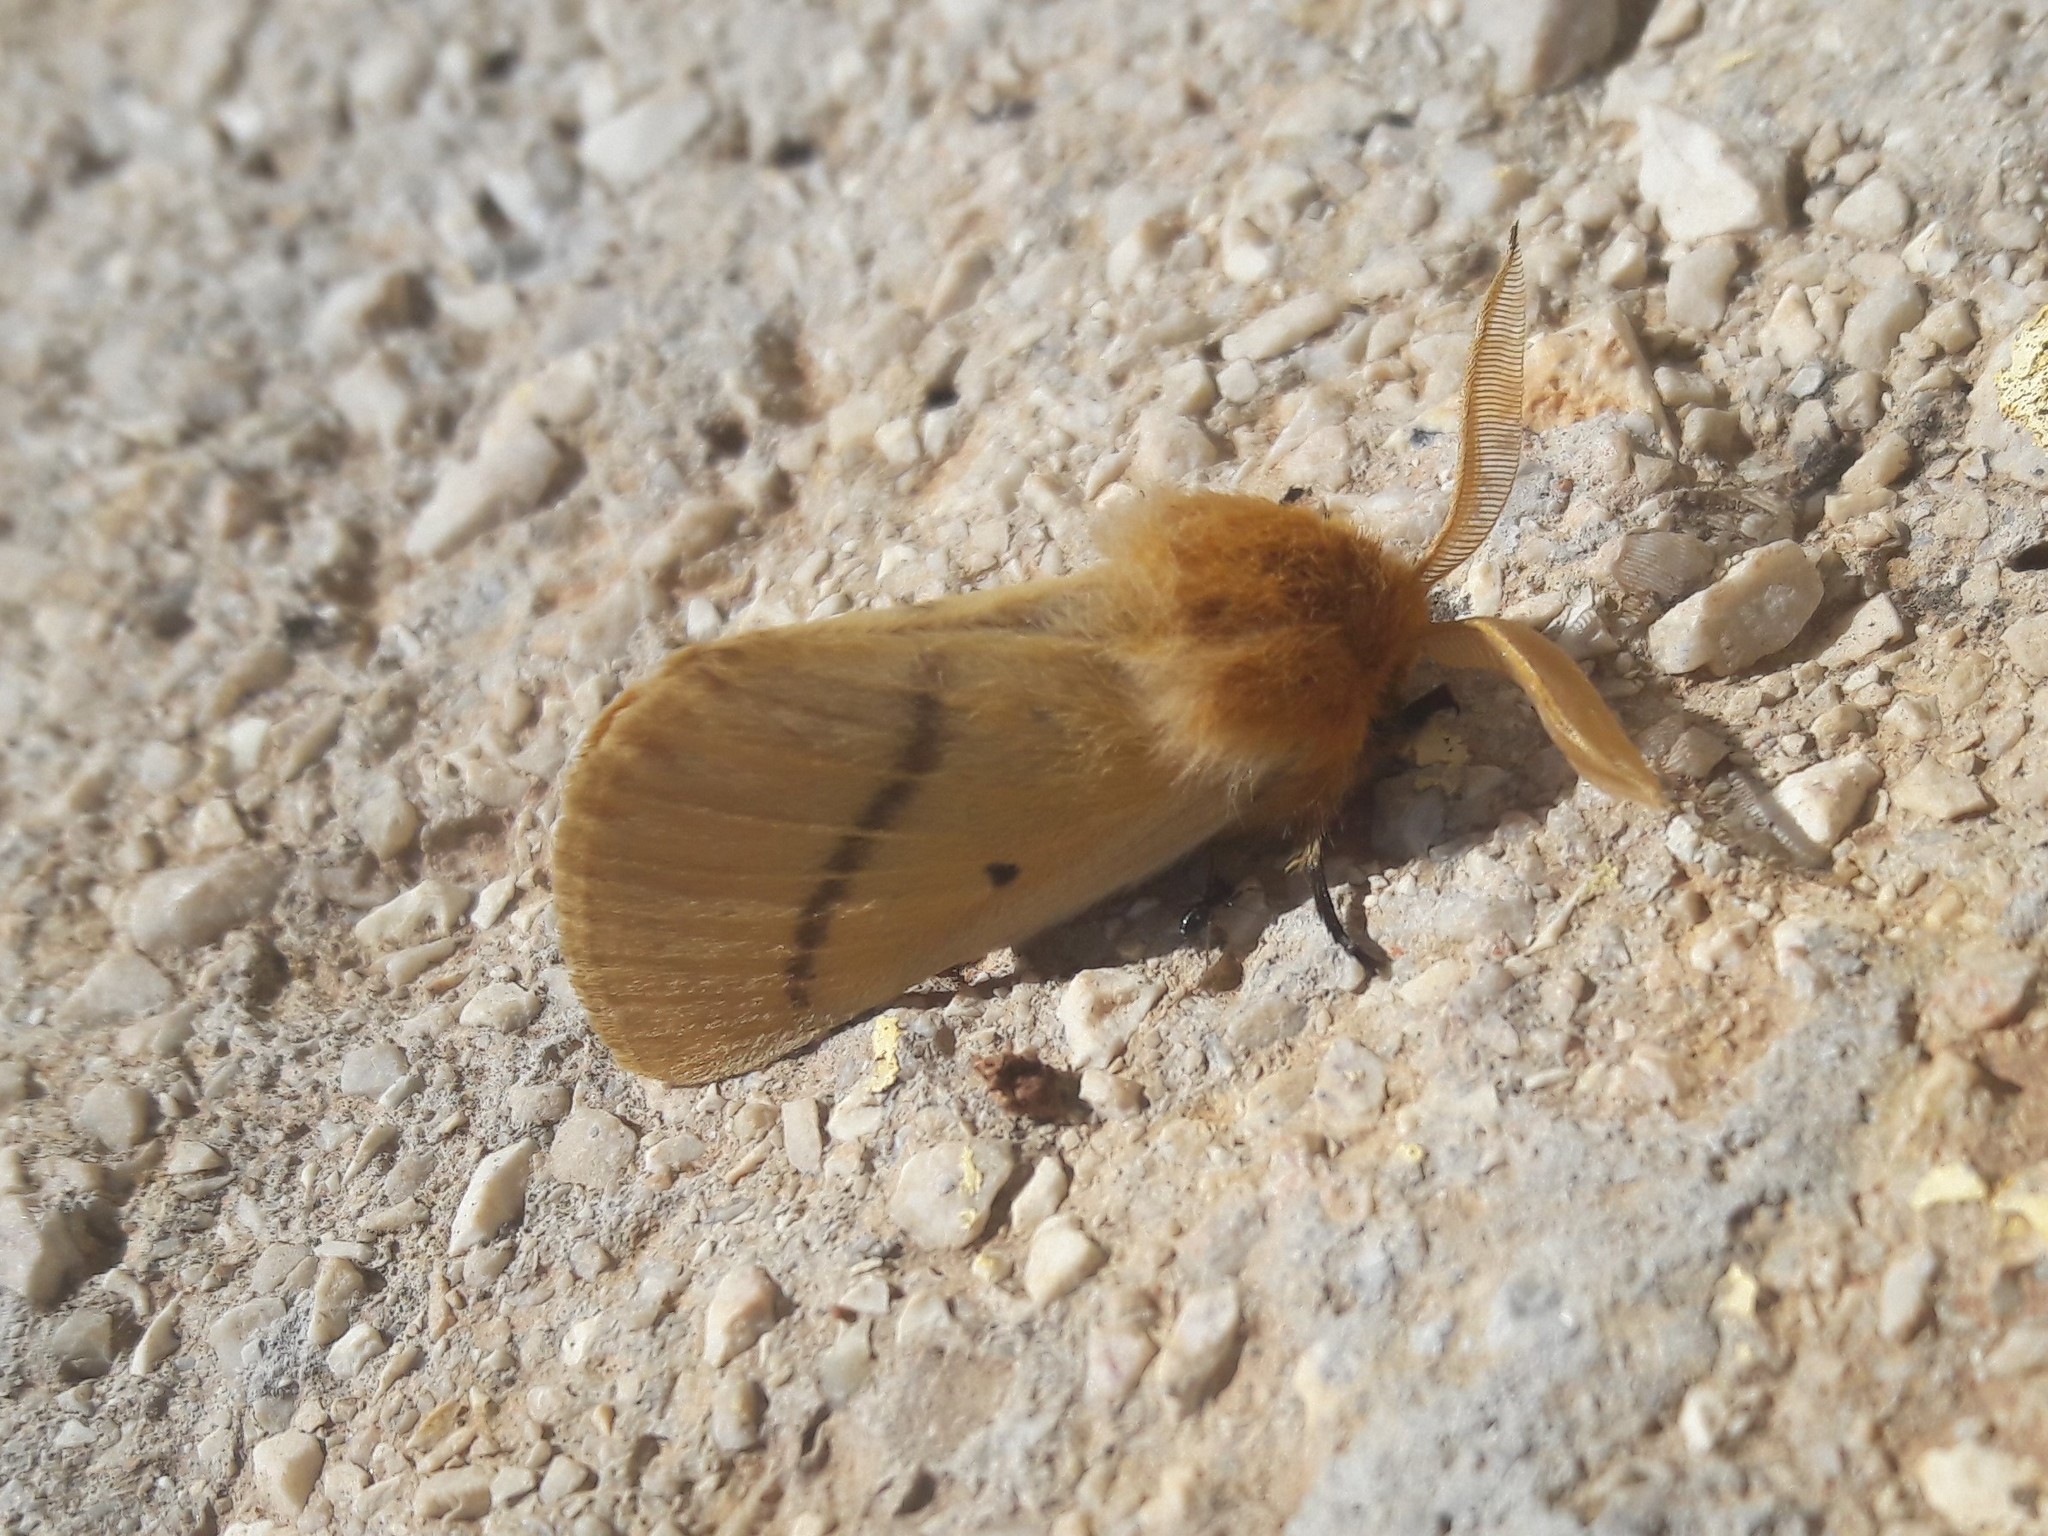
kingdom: Animalia
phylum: Arthropoda
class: Insecta
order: Lepidoptera
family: Brahmaeidae
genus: Lemonia
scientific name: Lemonia strigata
